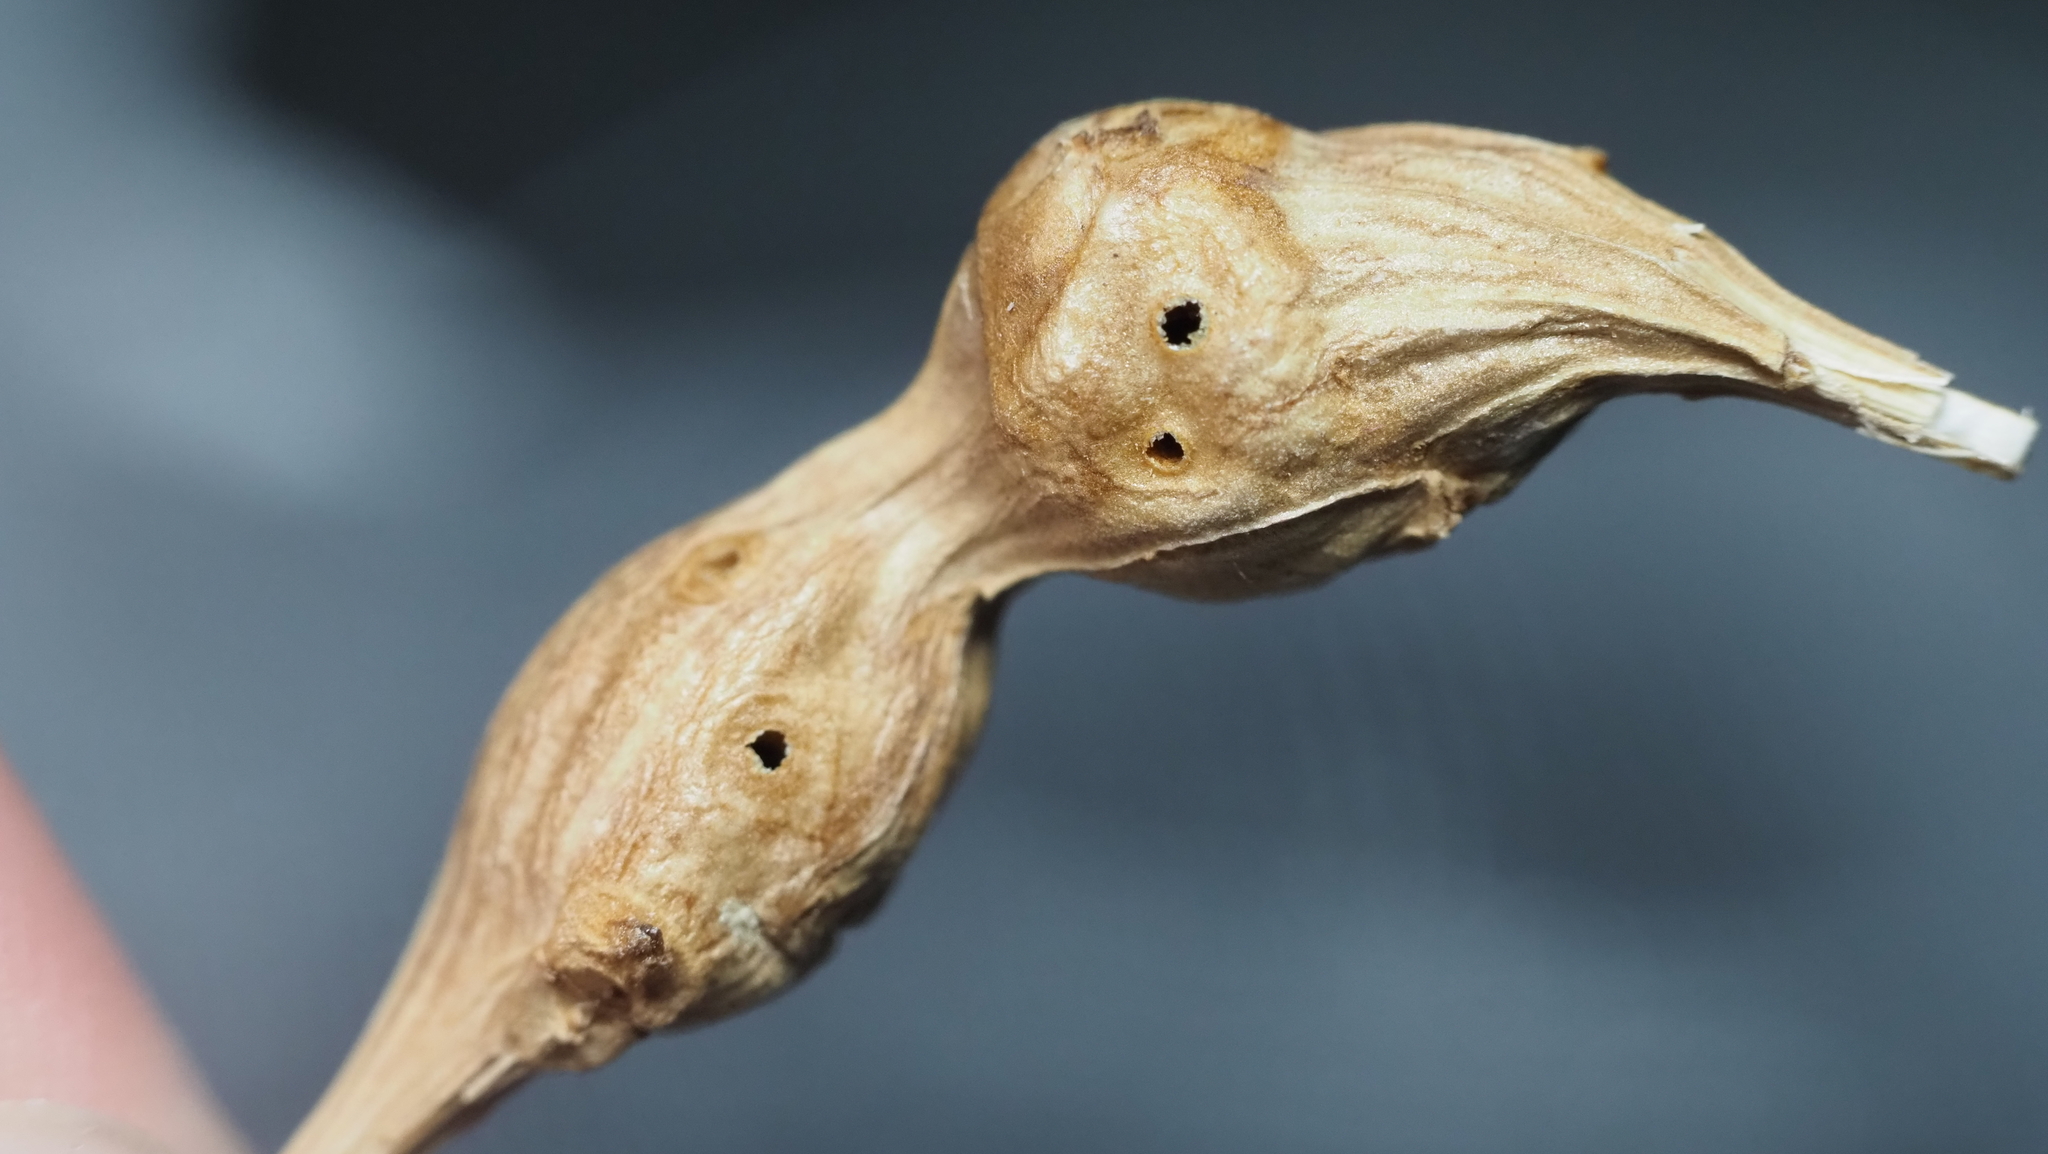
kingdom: Animalia
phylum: Arthropoda
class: Insecta
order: Diptera
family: Cecidomyiidae
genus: Neolasioptera
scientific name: Neolasioptera lathami
